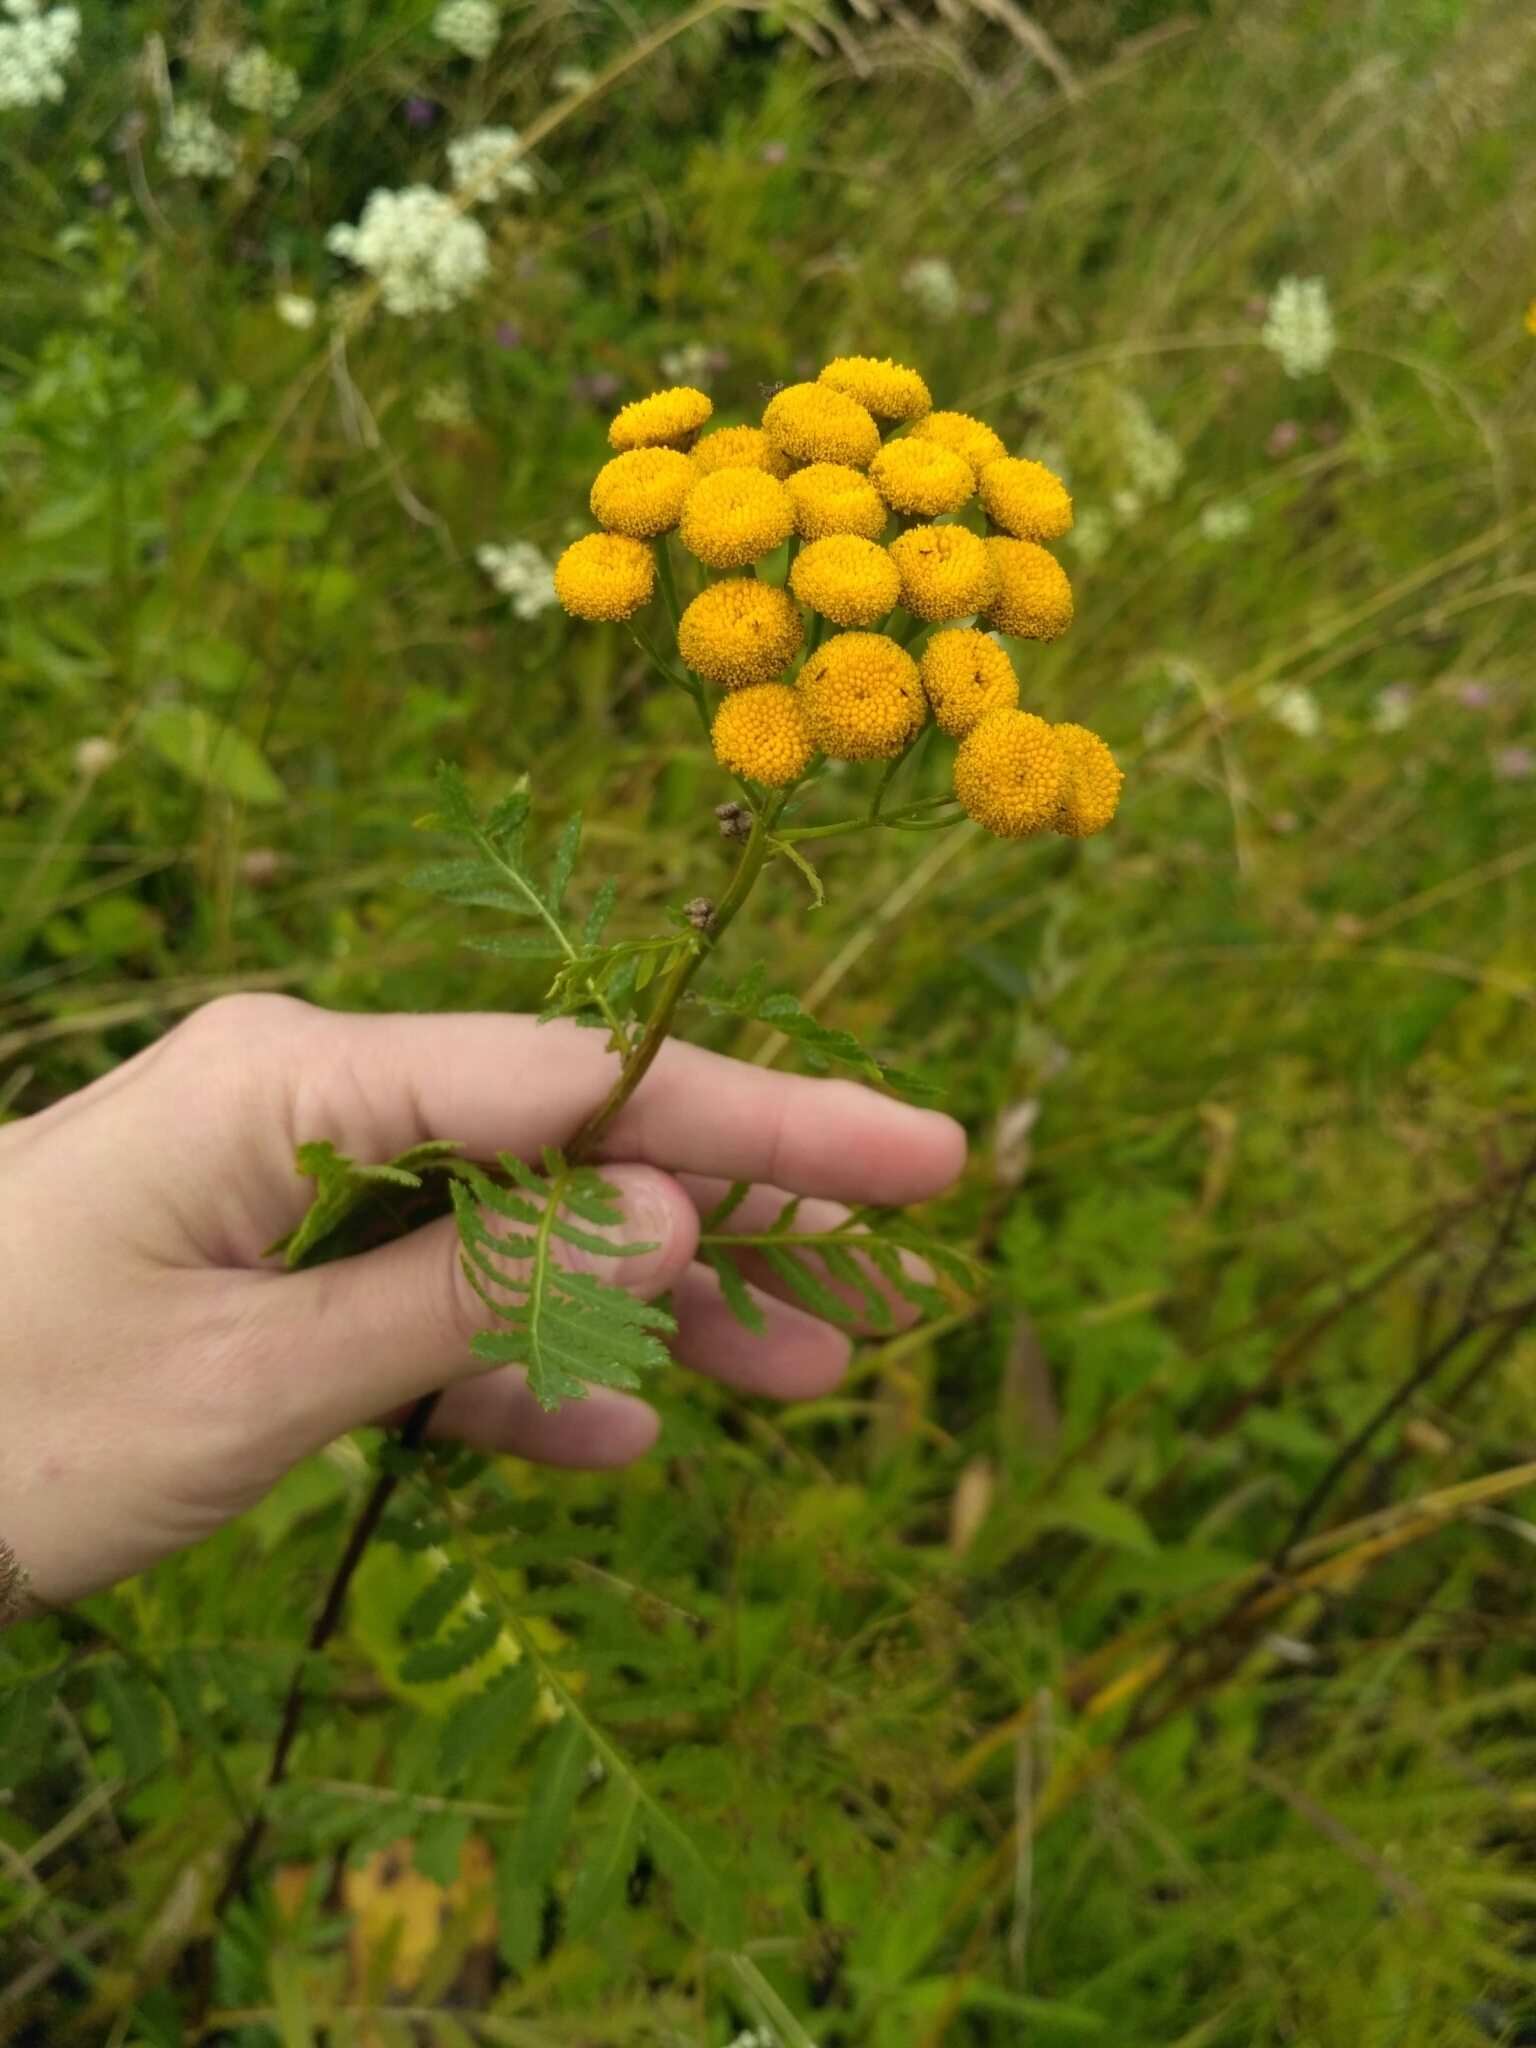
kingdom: Plantae
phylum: Tracheophyta
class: Magnoliopsida
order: Asterales
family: Asteraceae
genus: Tanacetum
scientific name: Tanacetum vulgare
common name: Common tansy
